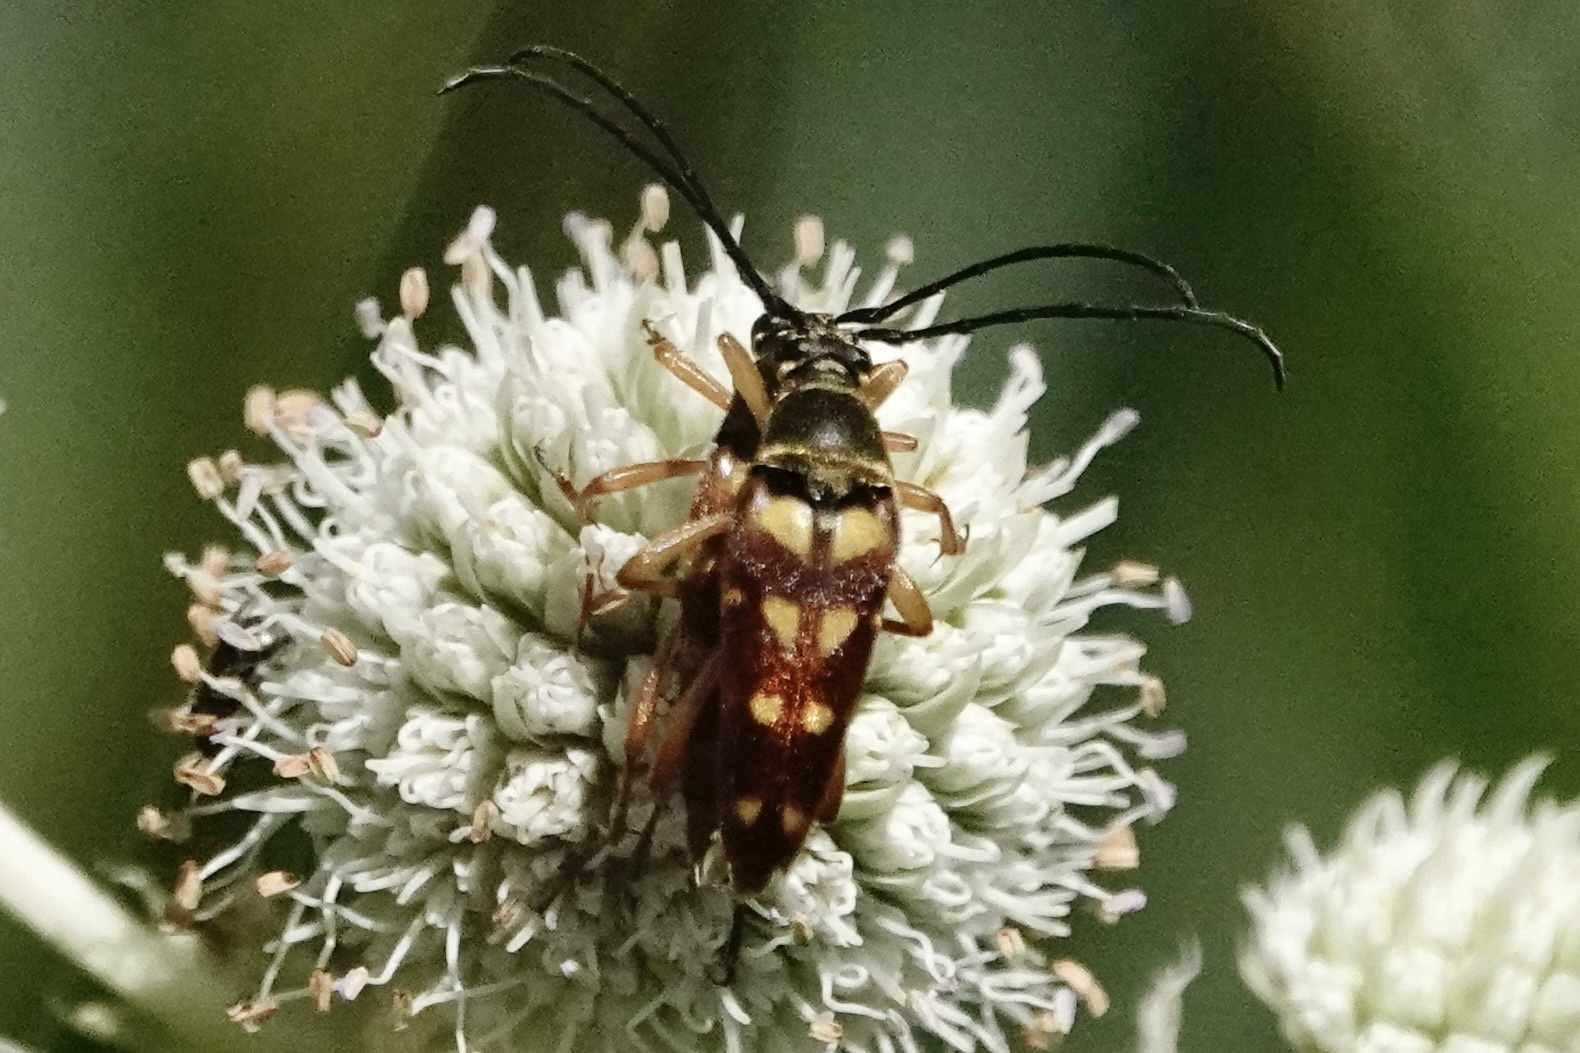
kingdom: Animalia
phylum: Arthropoda
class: Insecta
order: Coleoptera
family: Cerambycidae
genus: Typocerus
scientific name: Typocerus velutinus
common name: Banded longhorn beetle
